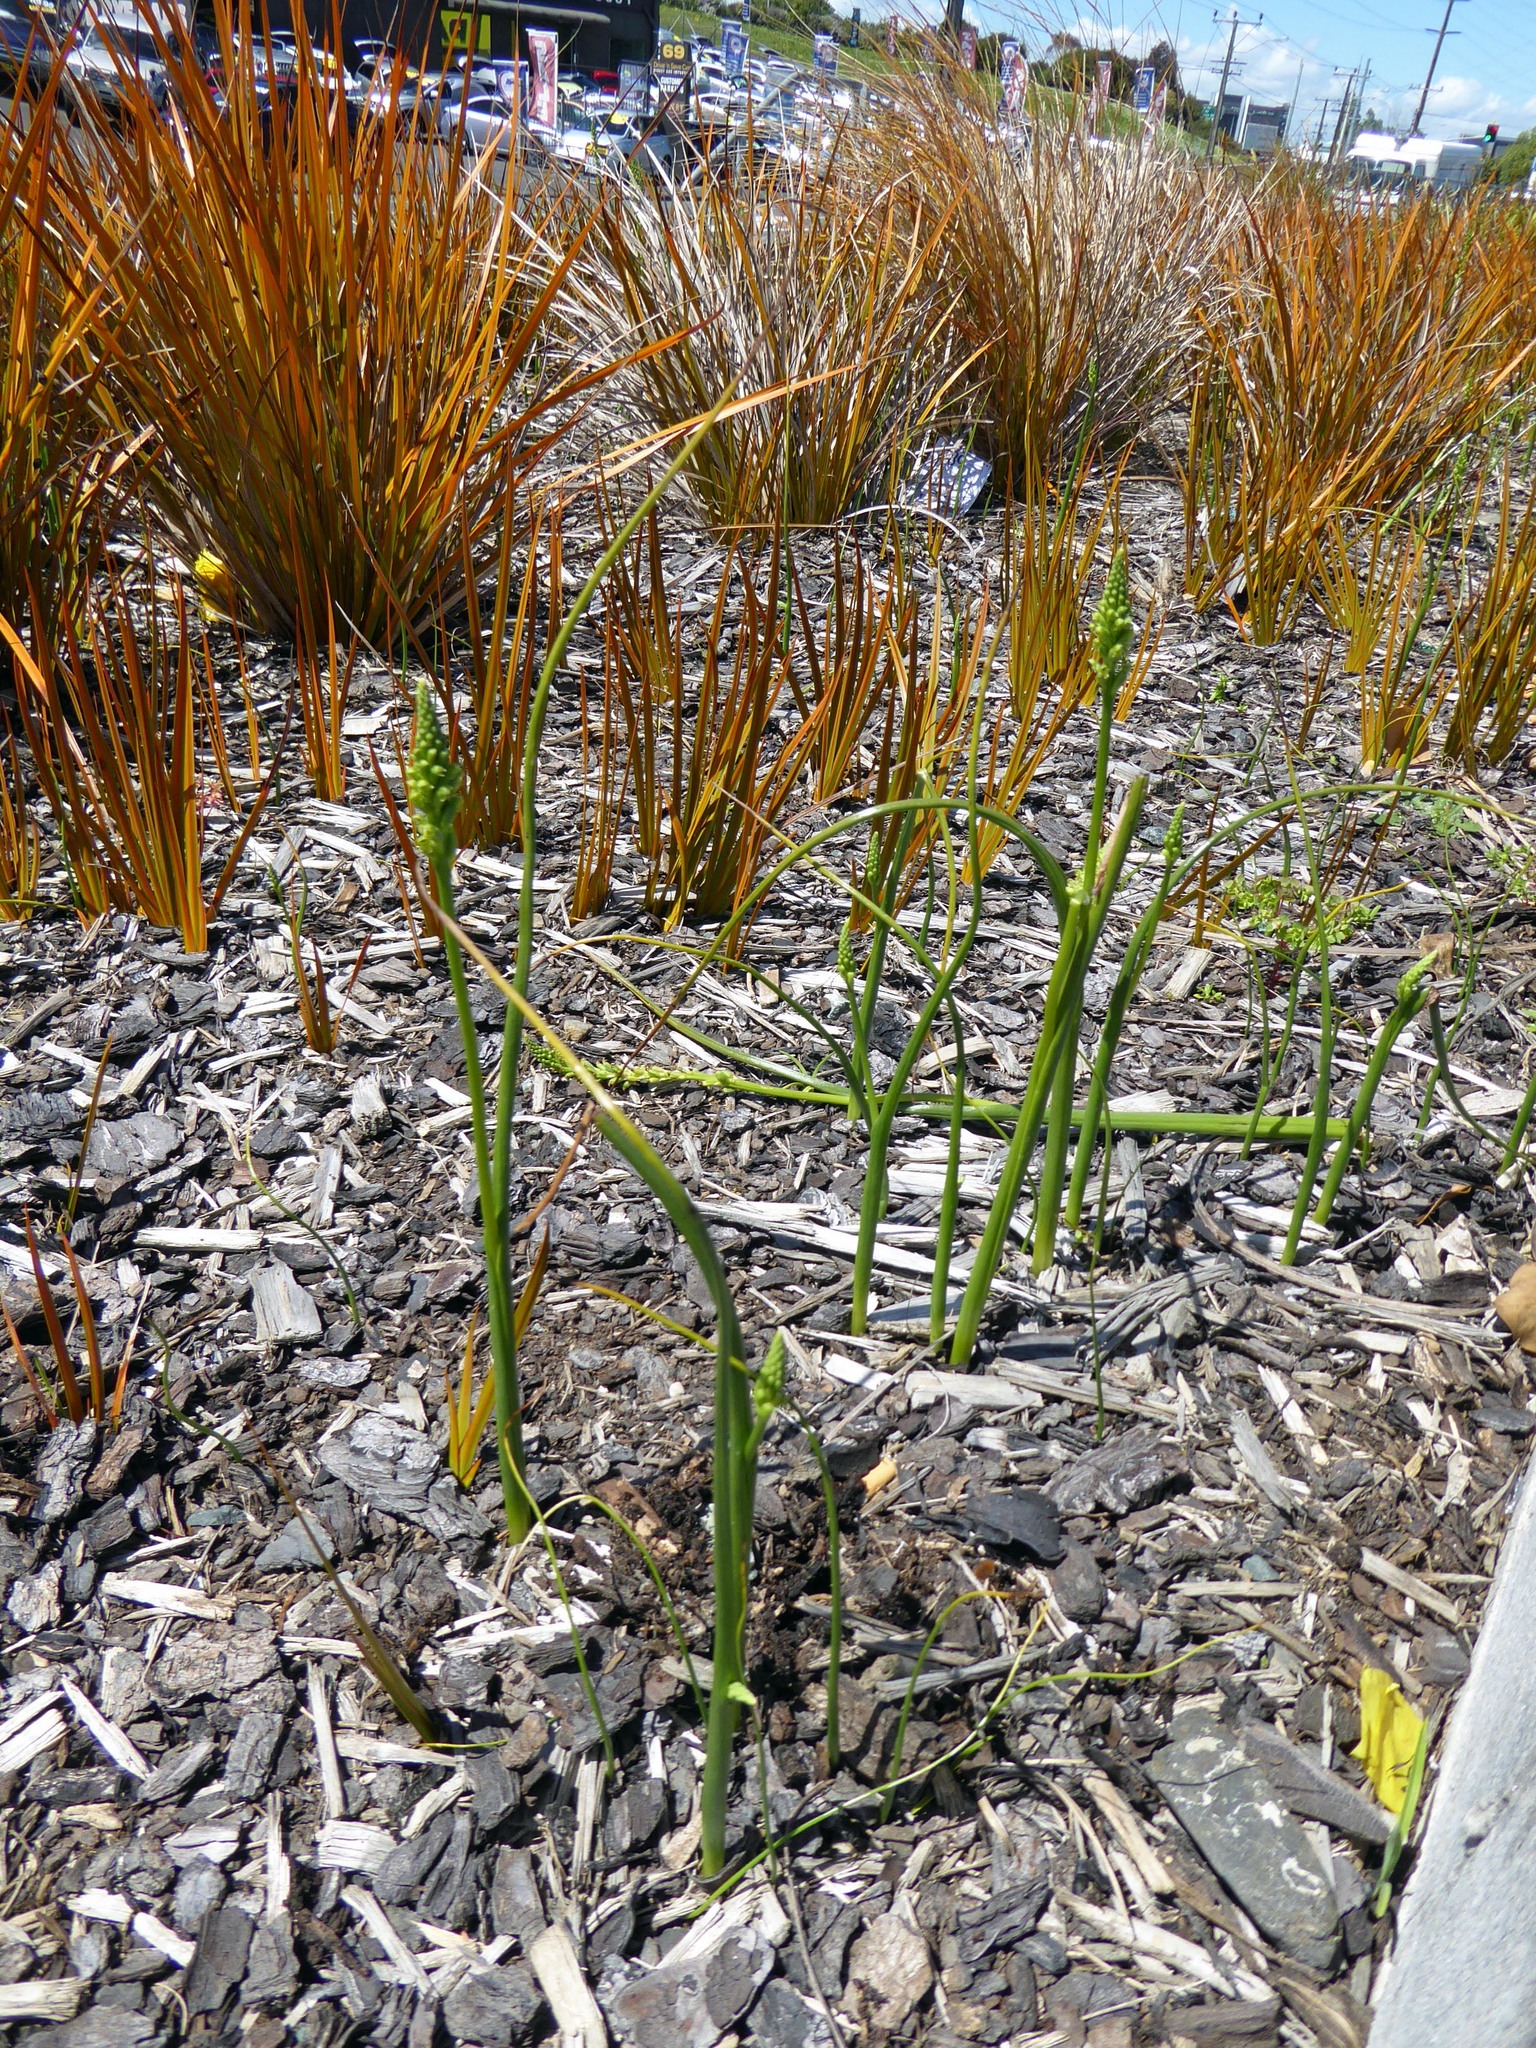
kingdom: Plantae
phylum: Tracheophyta
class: Liliopsida
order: Asparagales
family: Orchidaceae
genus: Microtis
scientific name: Microtis unifolia
